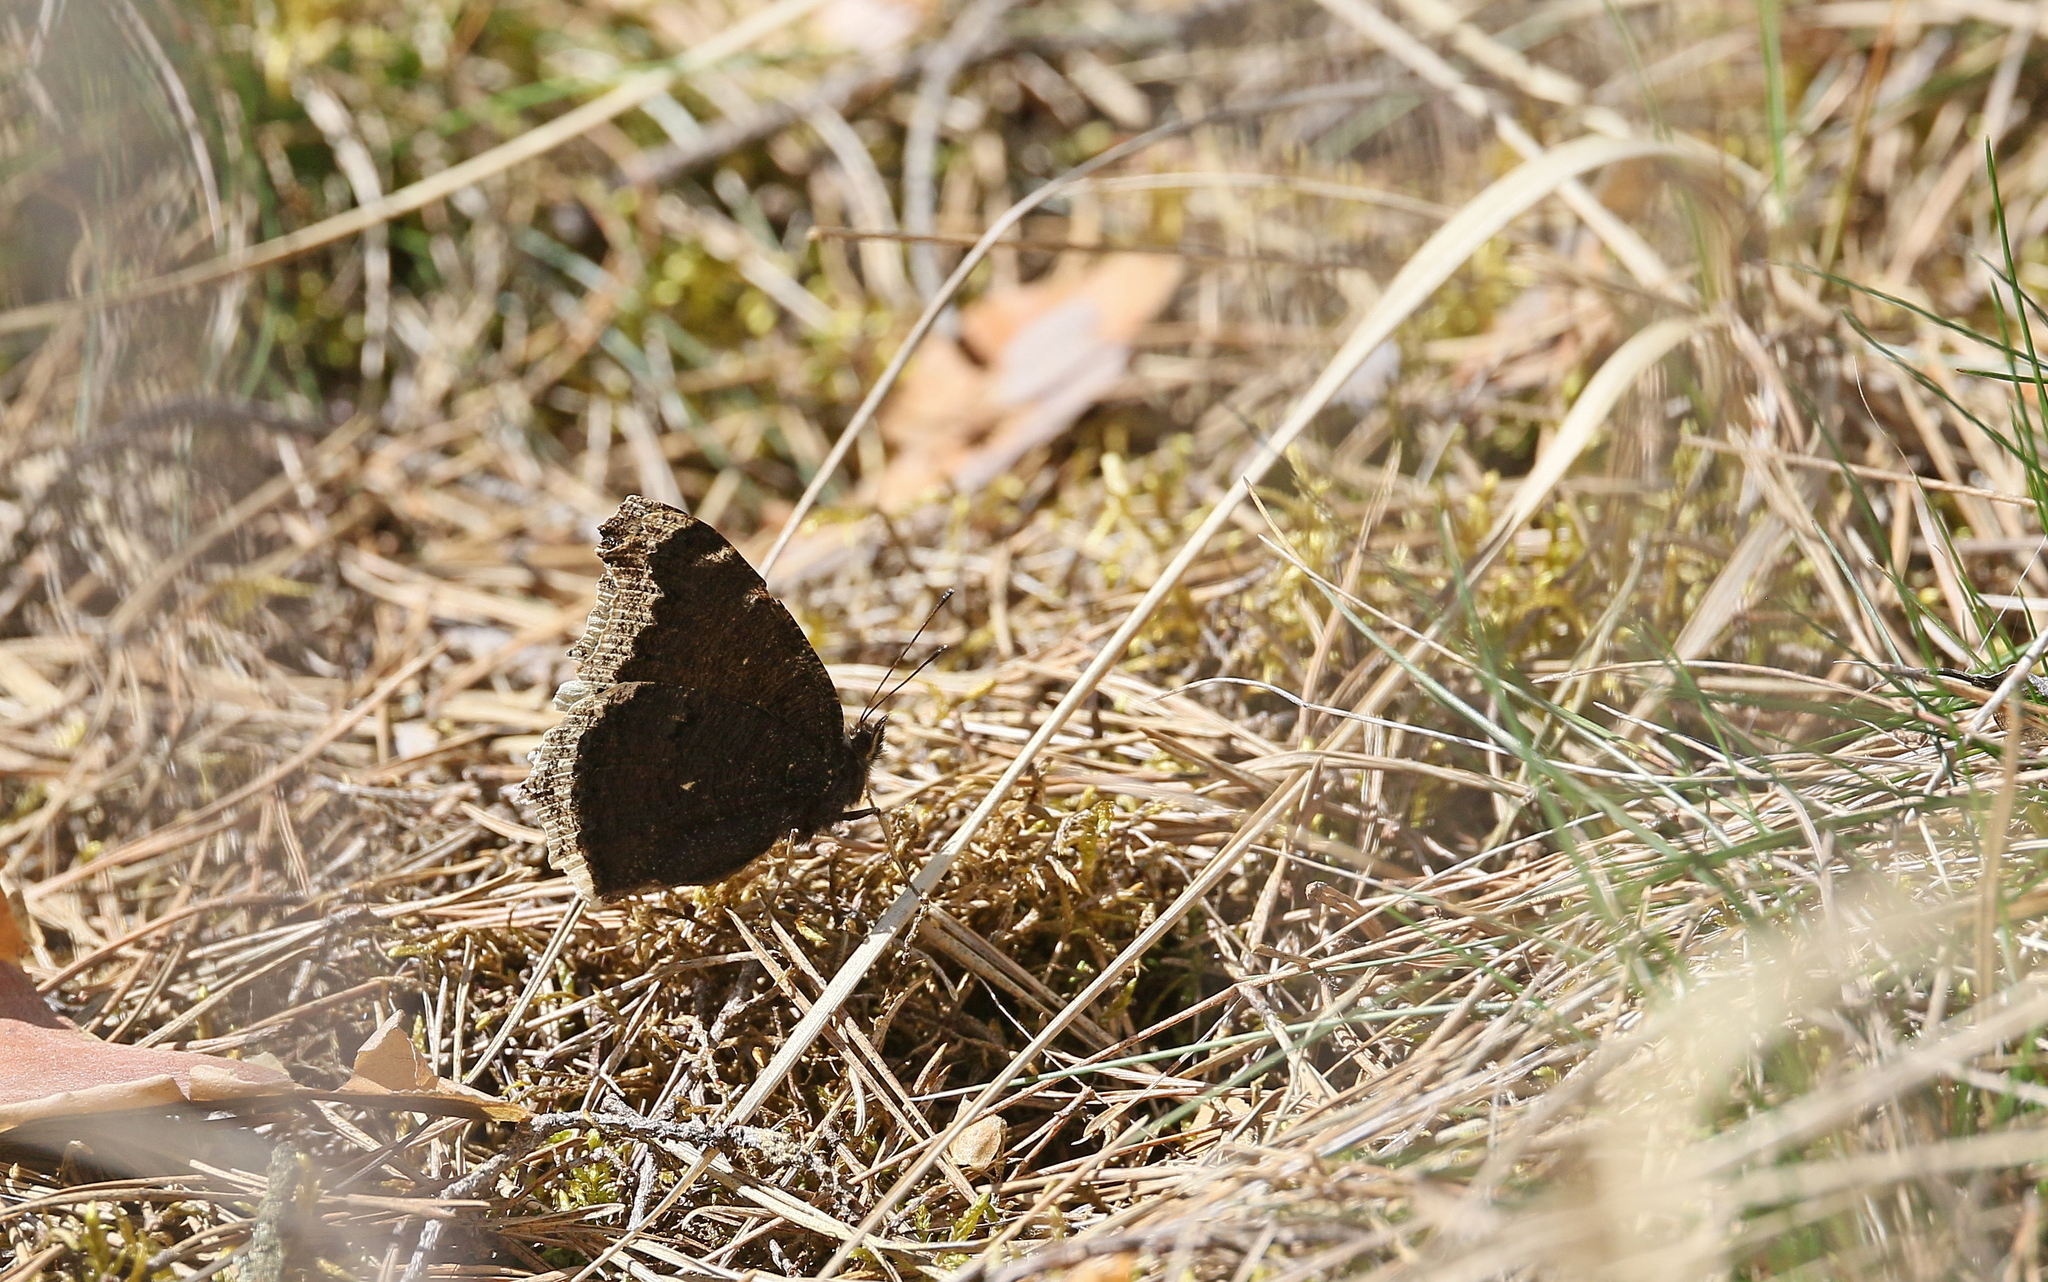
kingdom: Animalia
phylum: Arthropoda
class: Insecta
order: Lepidoptera
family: Nymphalidae
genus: Nymphalis
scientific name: Nymphalis antiopa
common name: Camberwell beauty
